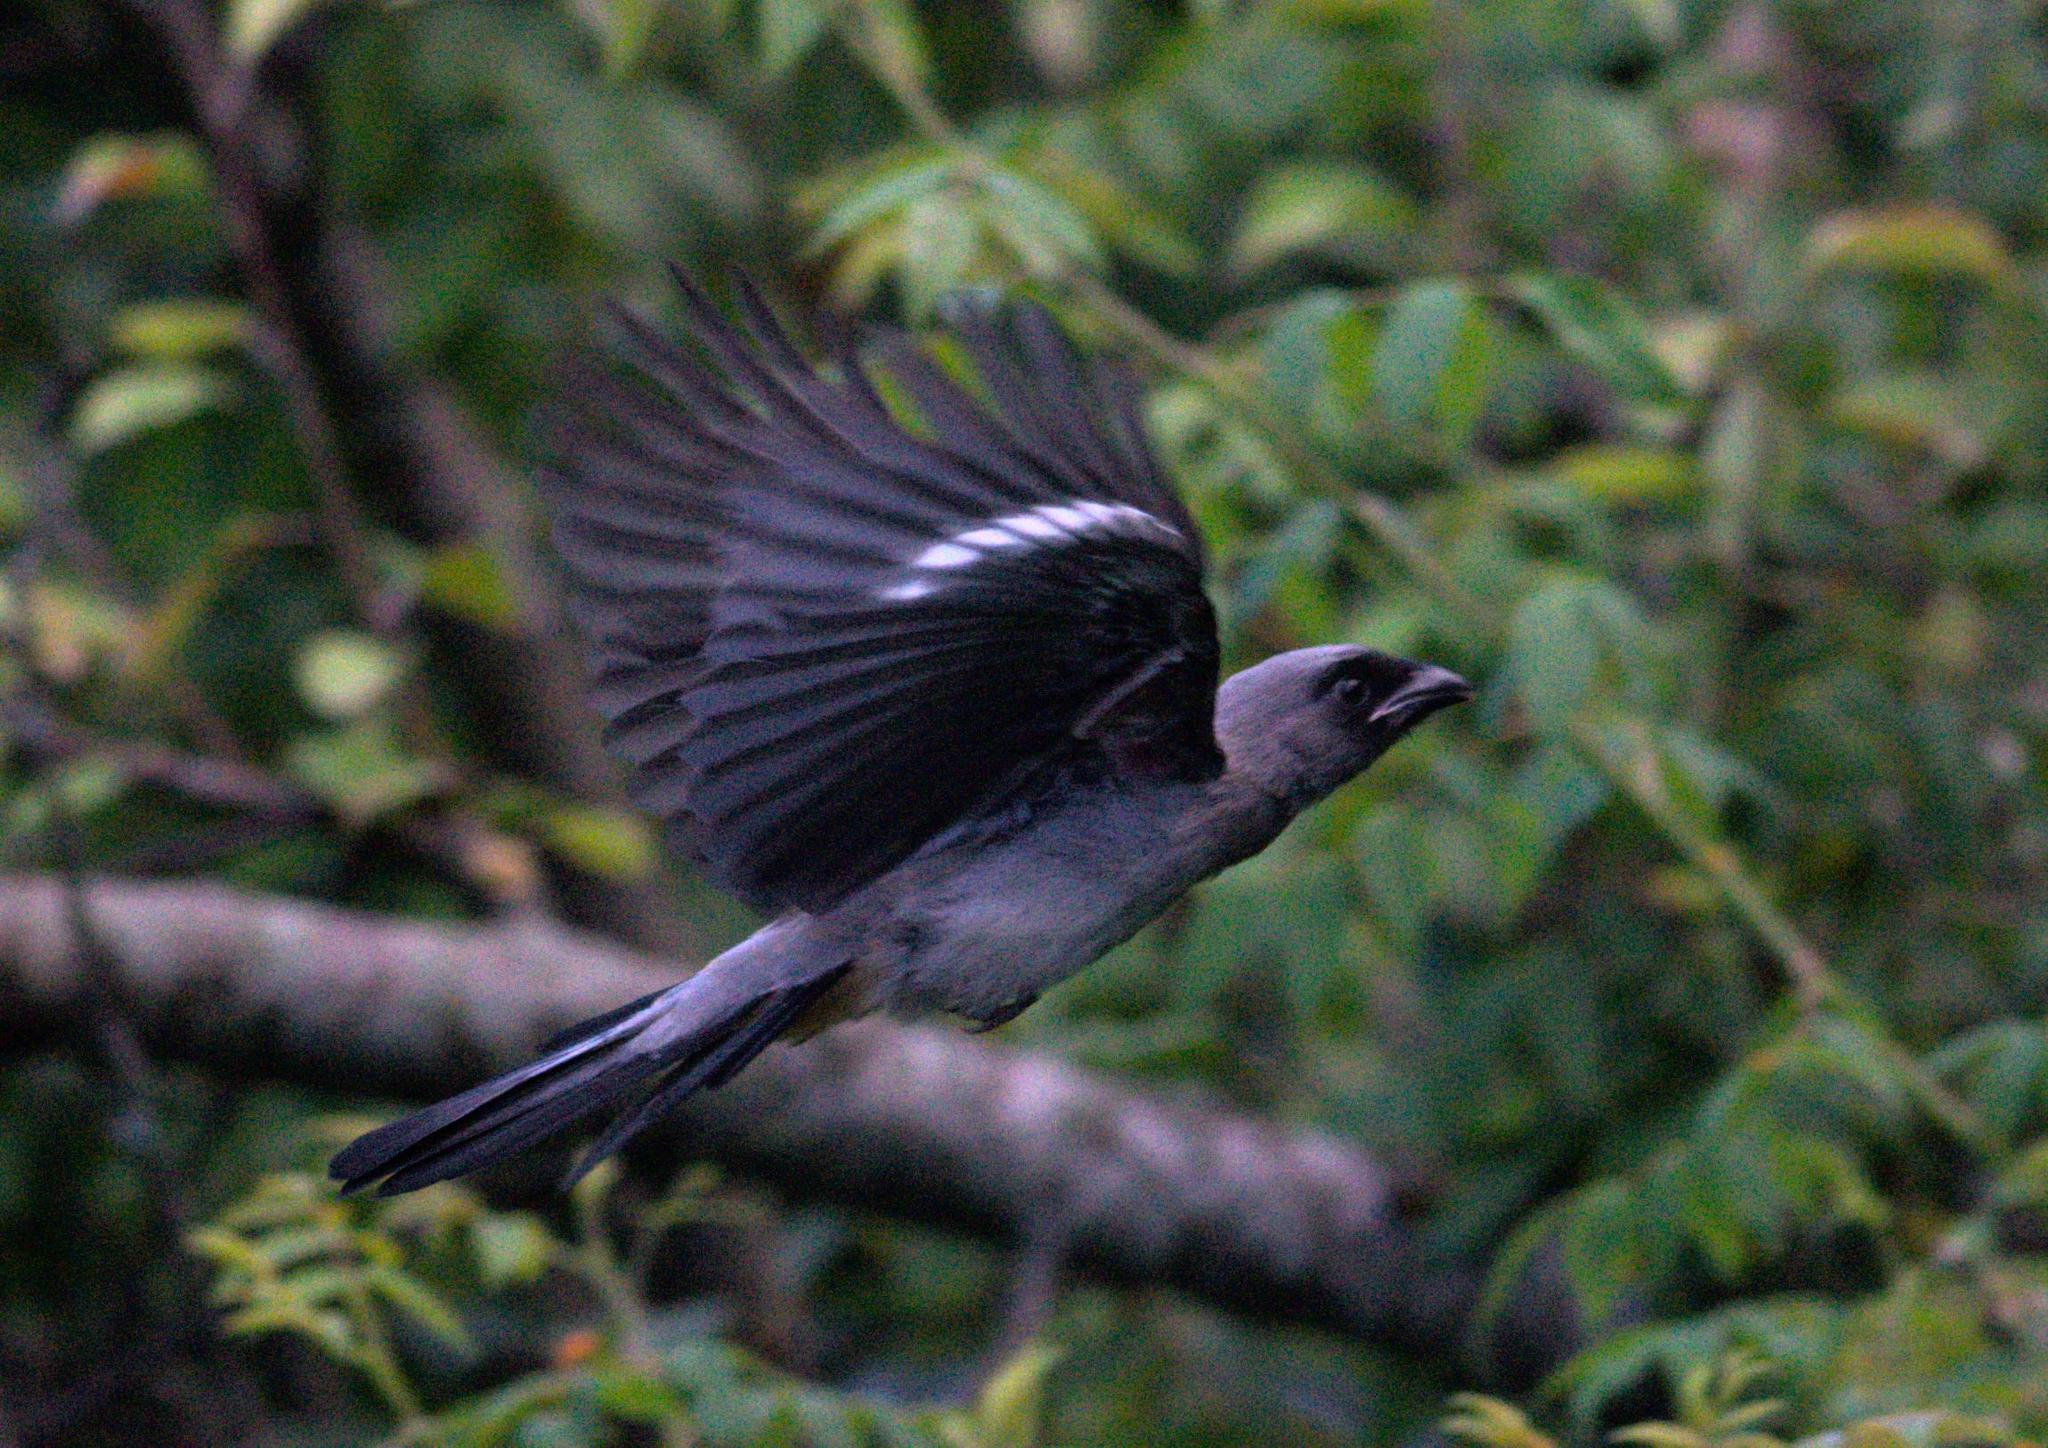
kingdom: Animalia
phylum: Chordata
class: Aves
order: Passeriformes
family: Corvidae
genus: Dendrocitta
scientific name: Dendrocitta formosae
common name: Grey treepie
